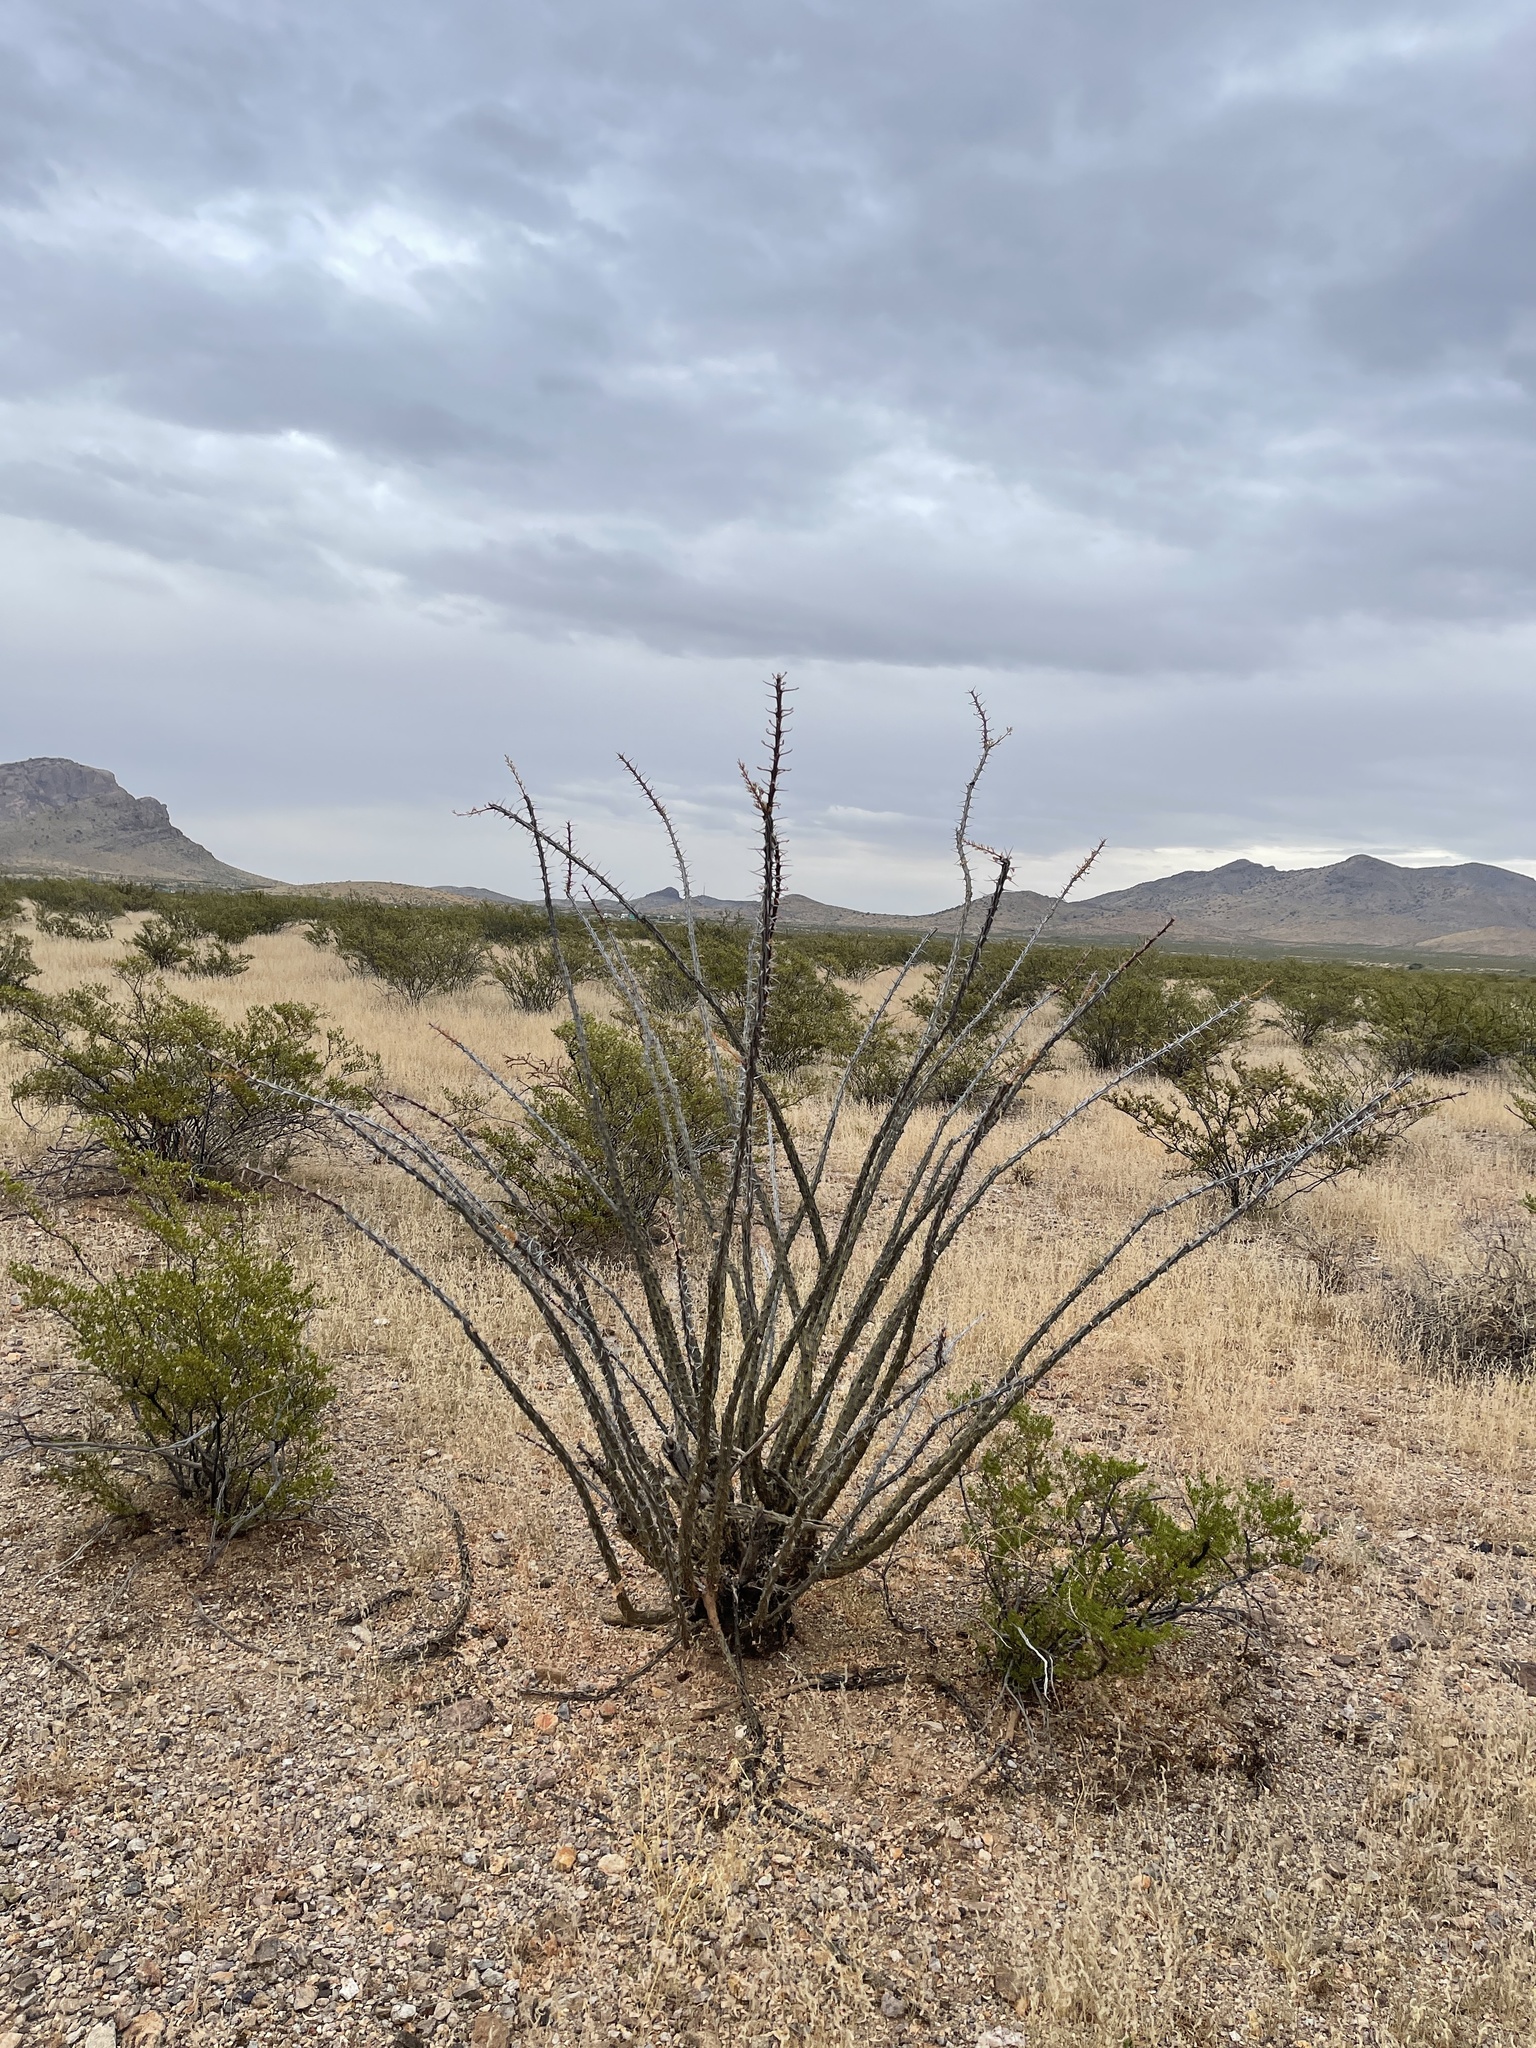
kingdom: Plantae
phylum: Tracheophyta
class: Magnoliopsida
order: Ericales
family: Fouquieriaceae
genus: Fouquieria
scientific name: Fouquieria splendens
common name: Vine-cactus
